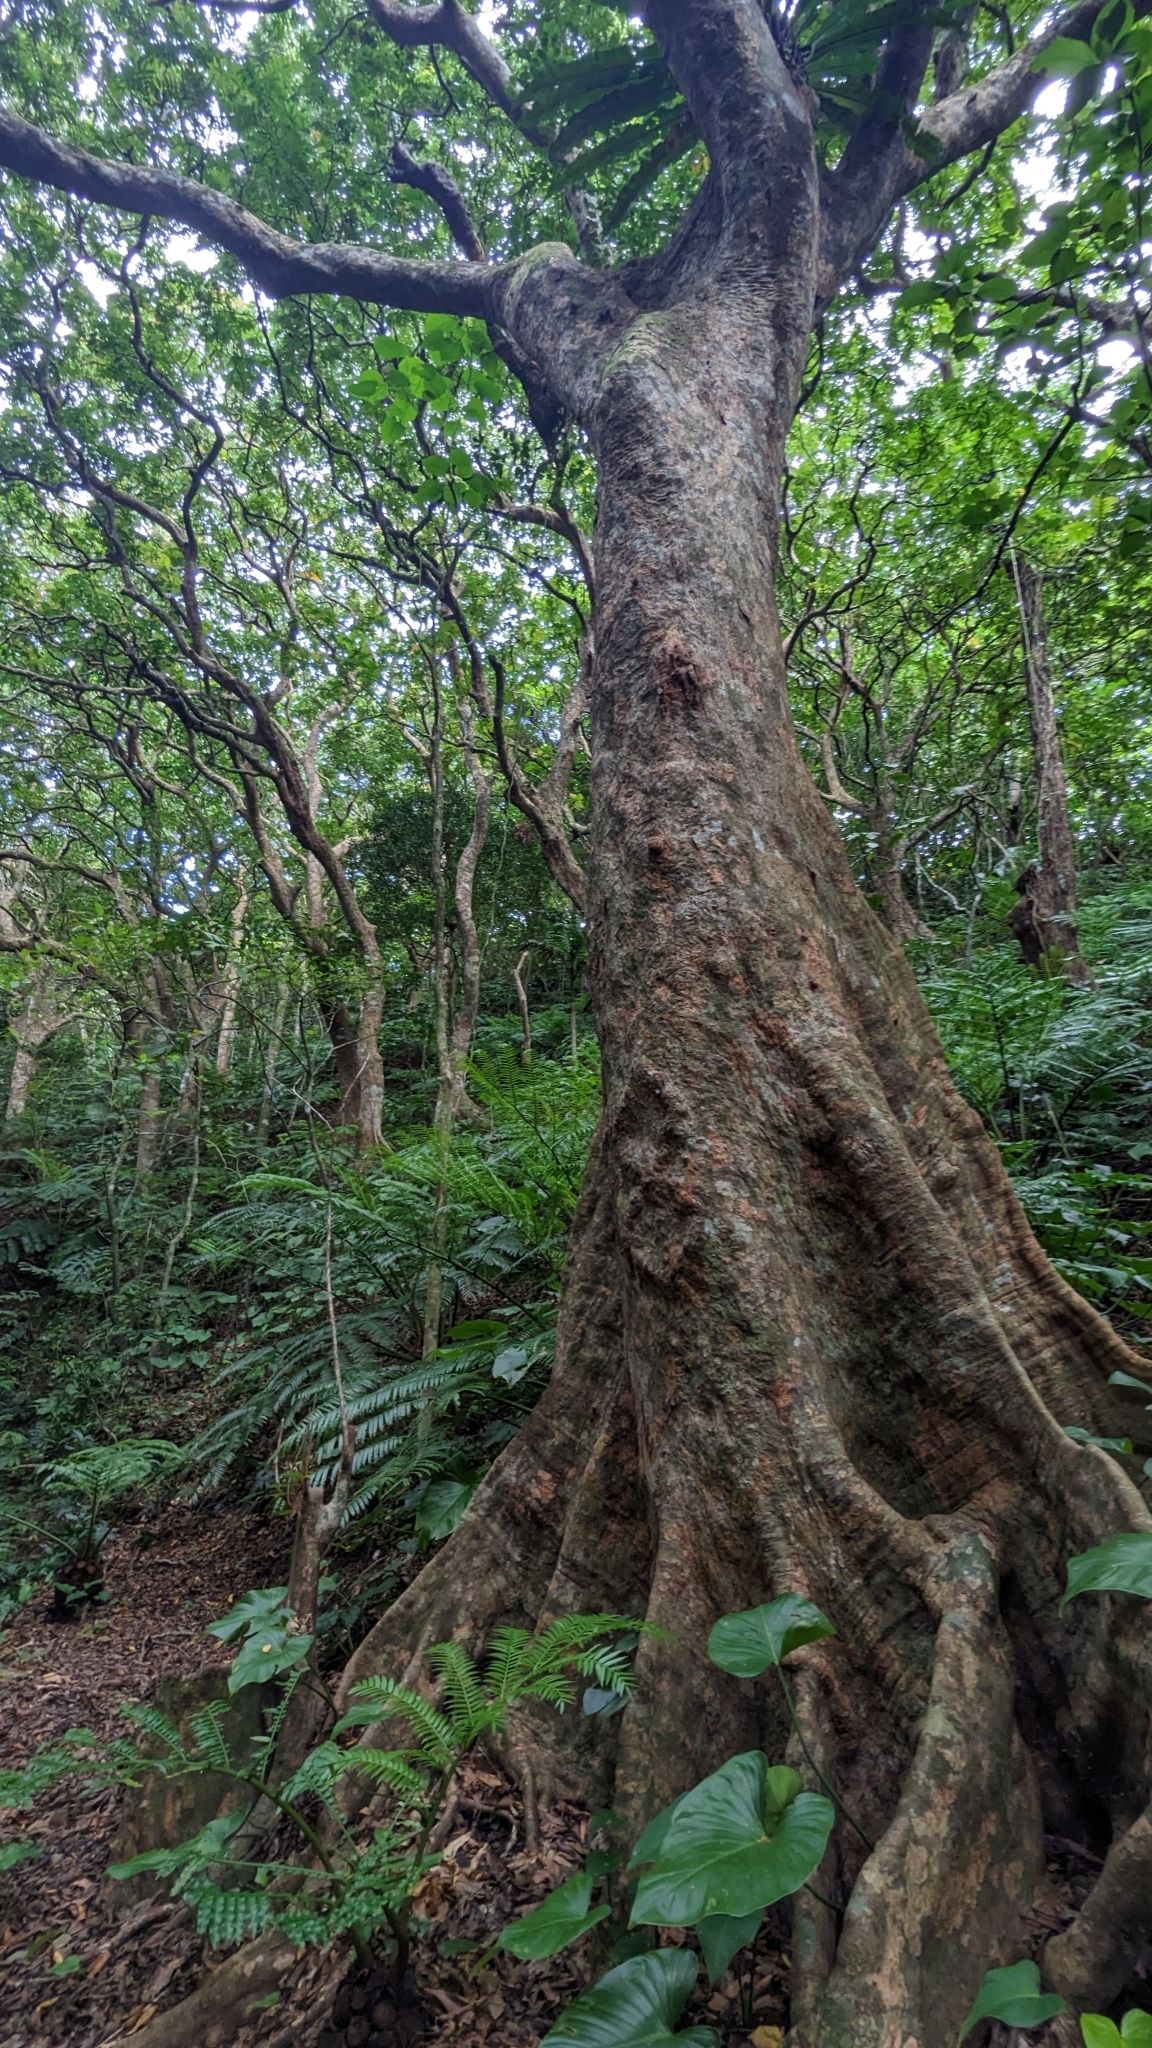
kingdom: Plantae
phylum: Tracheophyta
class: Magnoliopsida
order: Sapindales
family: Sapindaceae
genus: Pometia
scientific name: Pometia pinnata
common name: Oceanic lychee
